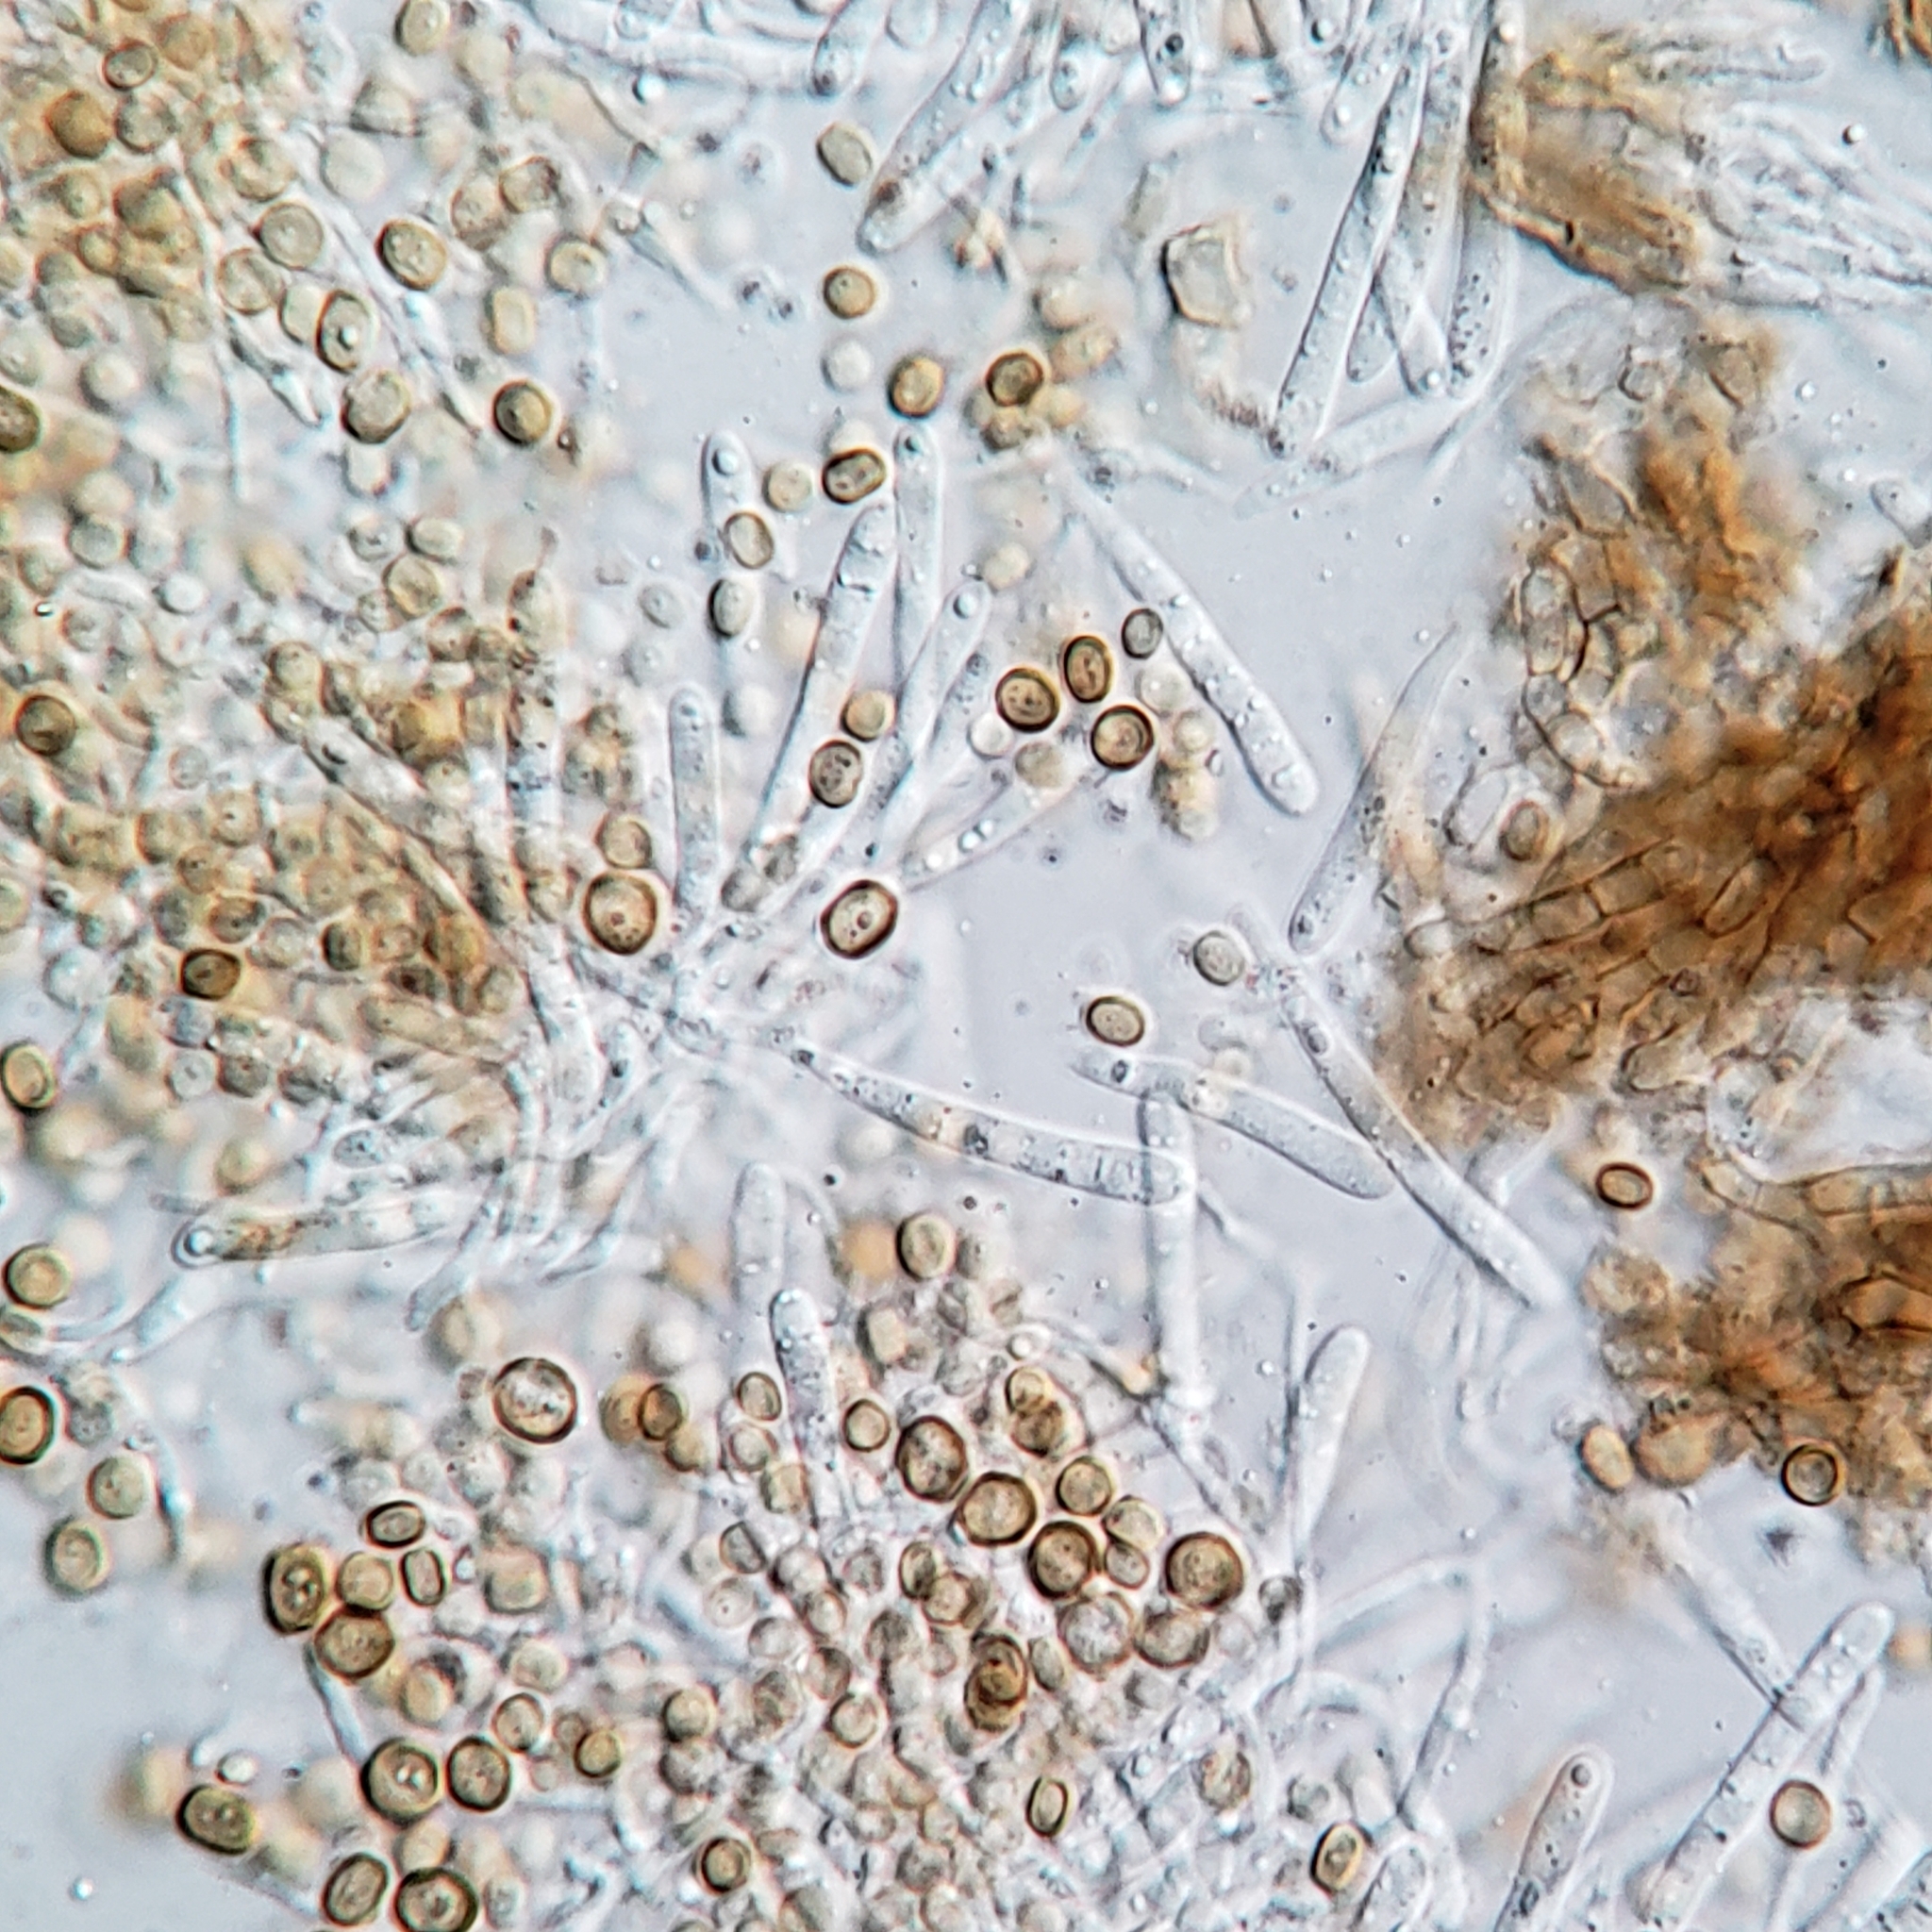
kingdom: Fungi
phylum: Ascomycota
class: Coniocybomycetes
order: Coniocybales
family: Coniocybaceae
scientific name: Coniocybaceae
